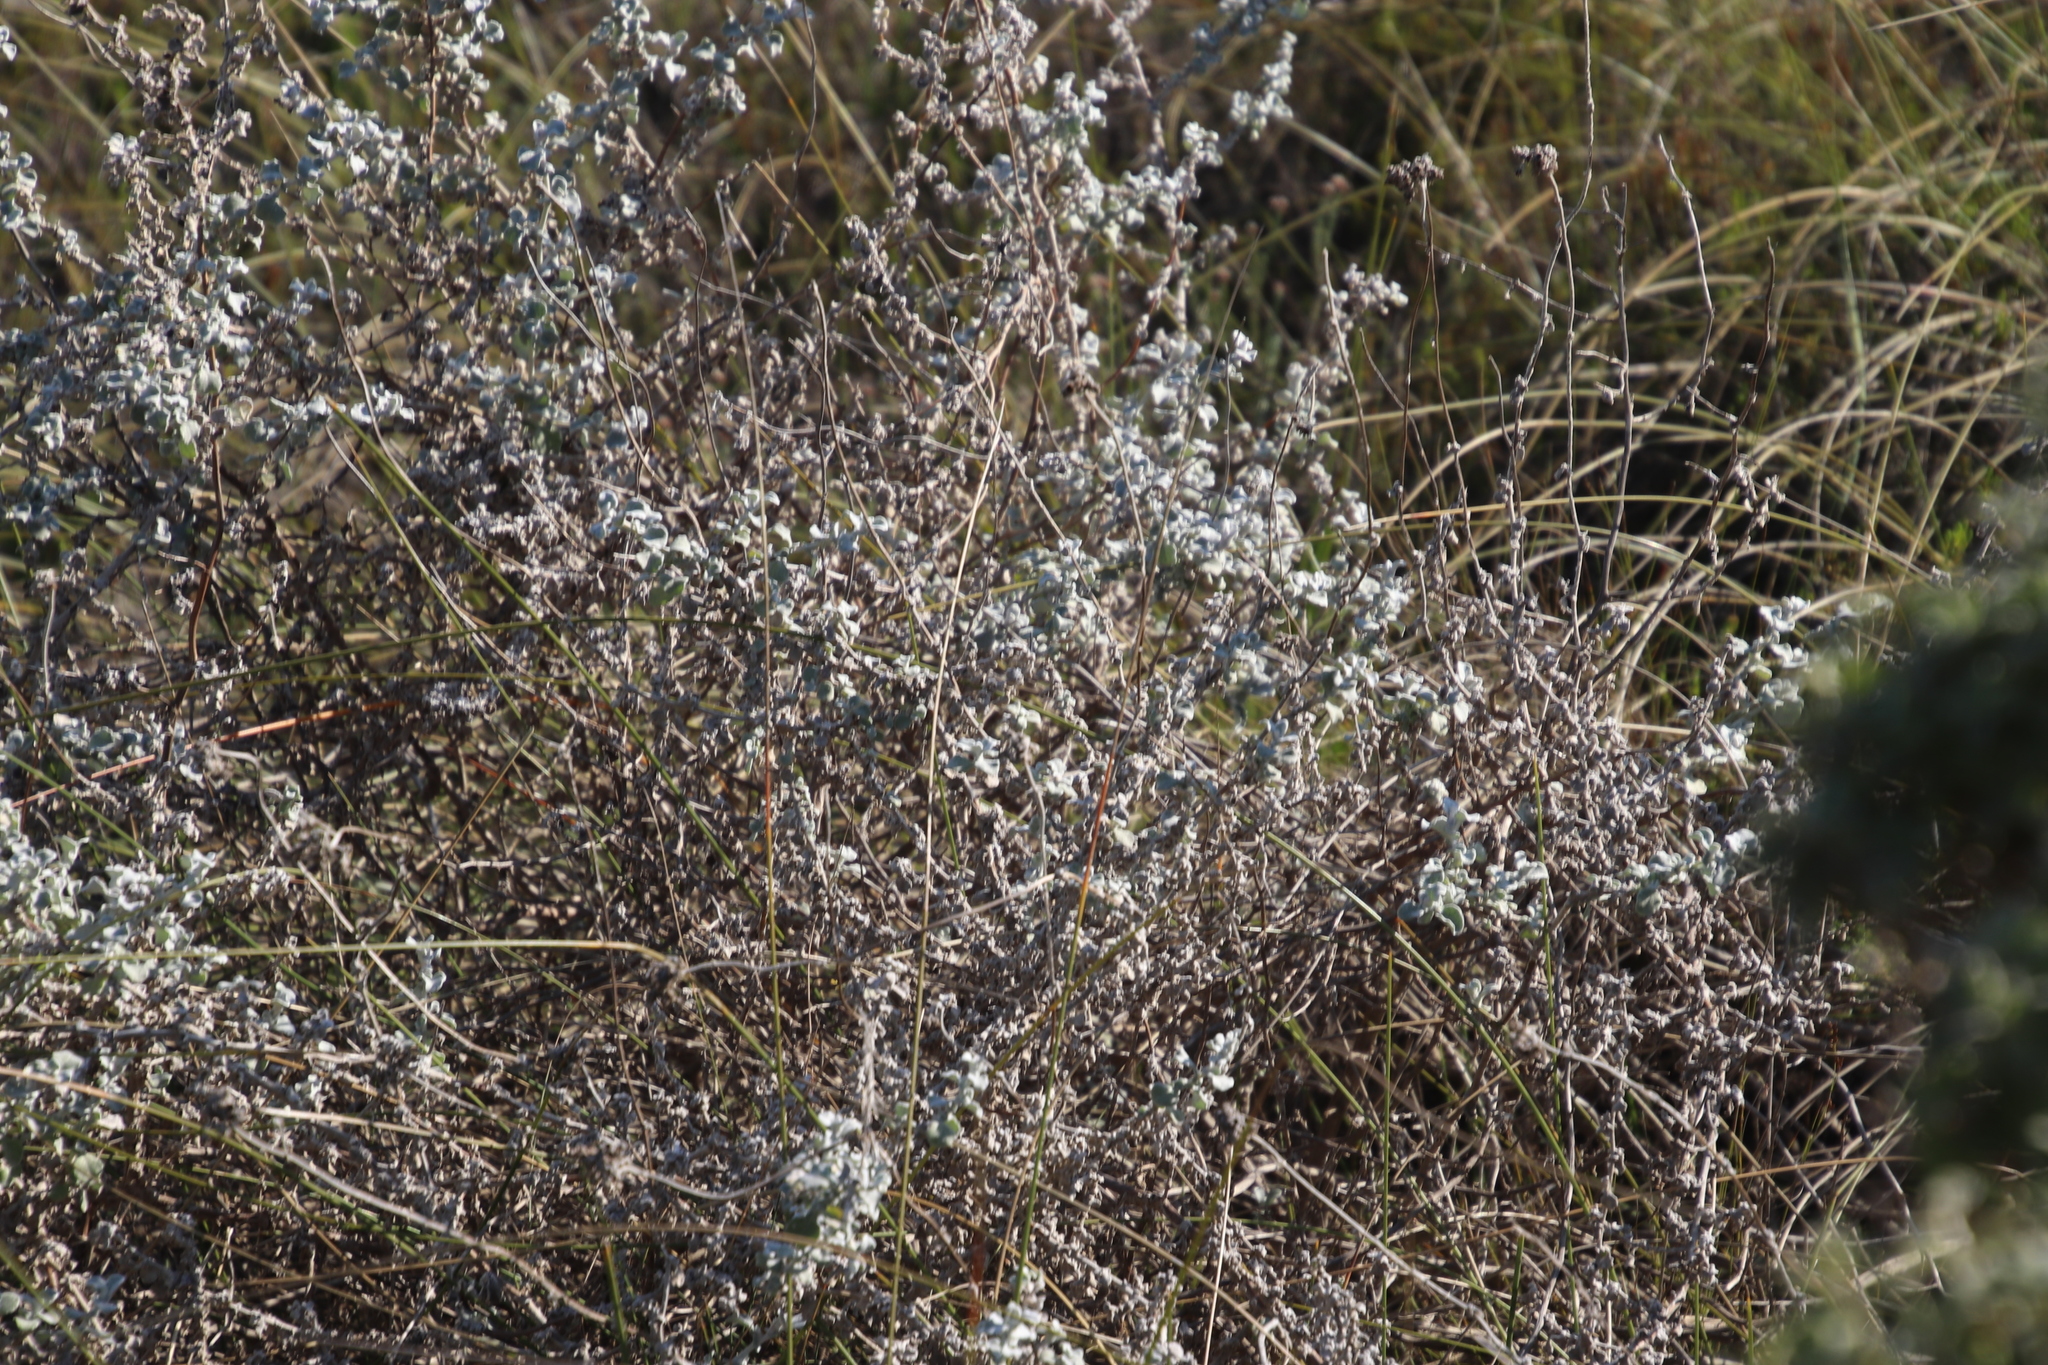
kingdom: Plantae
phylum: Tracheophyta
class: Magnoliopsida
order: Asterales
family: Asteraceae
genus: Helichrysum
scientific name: Helichrysum patulum
